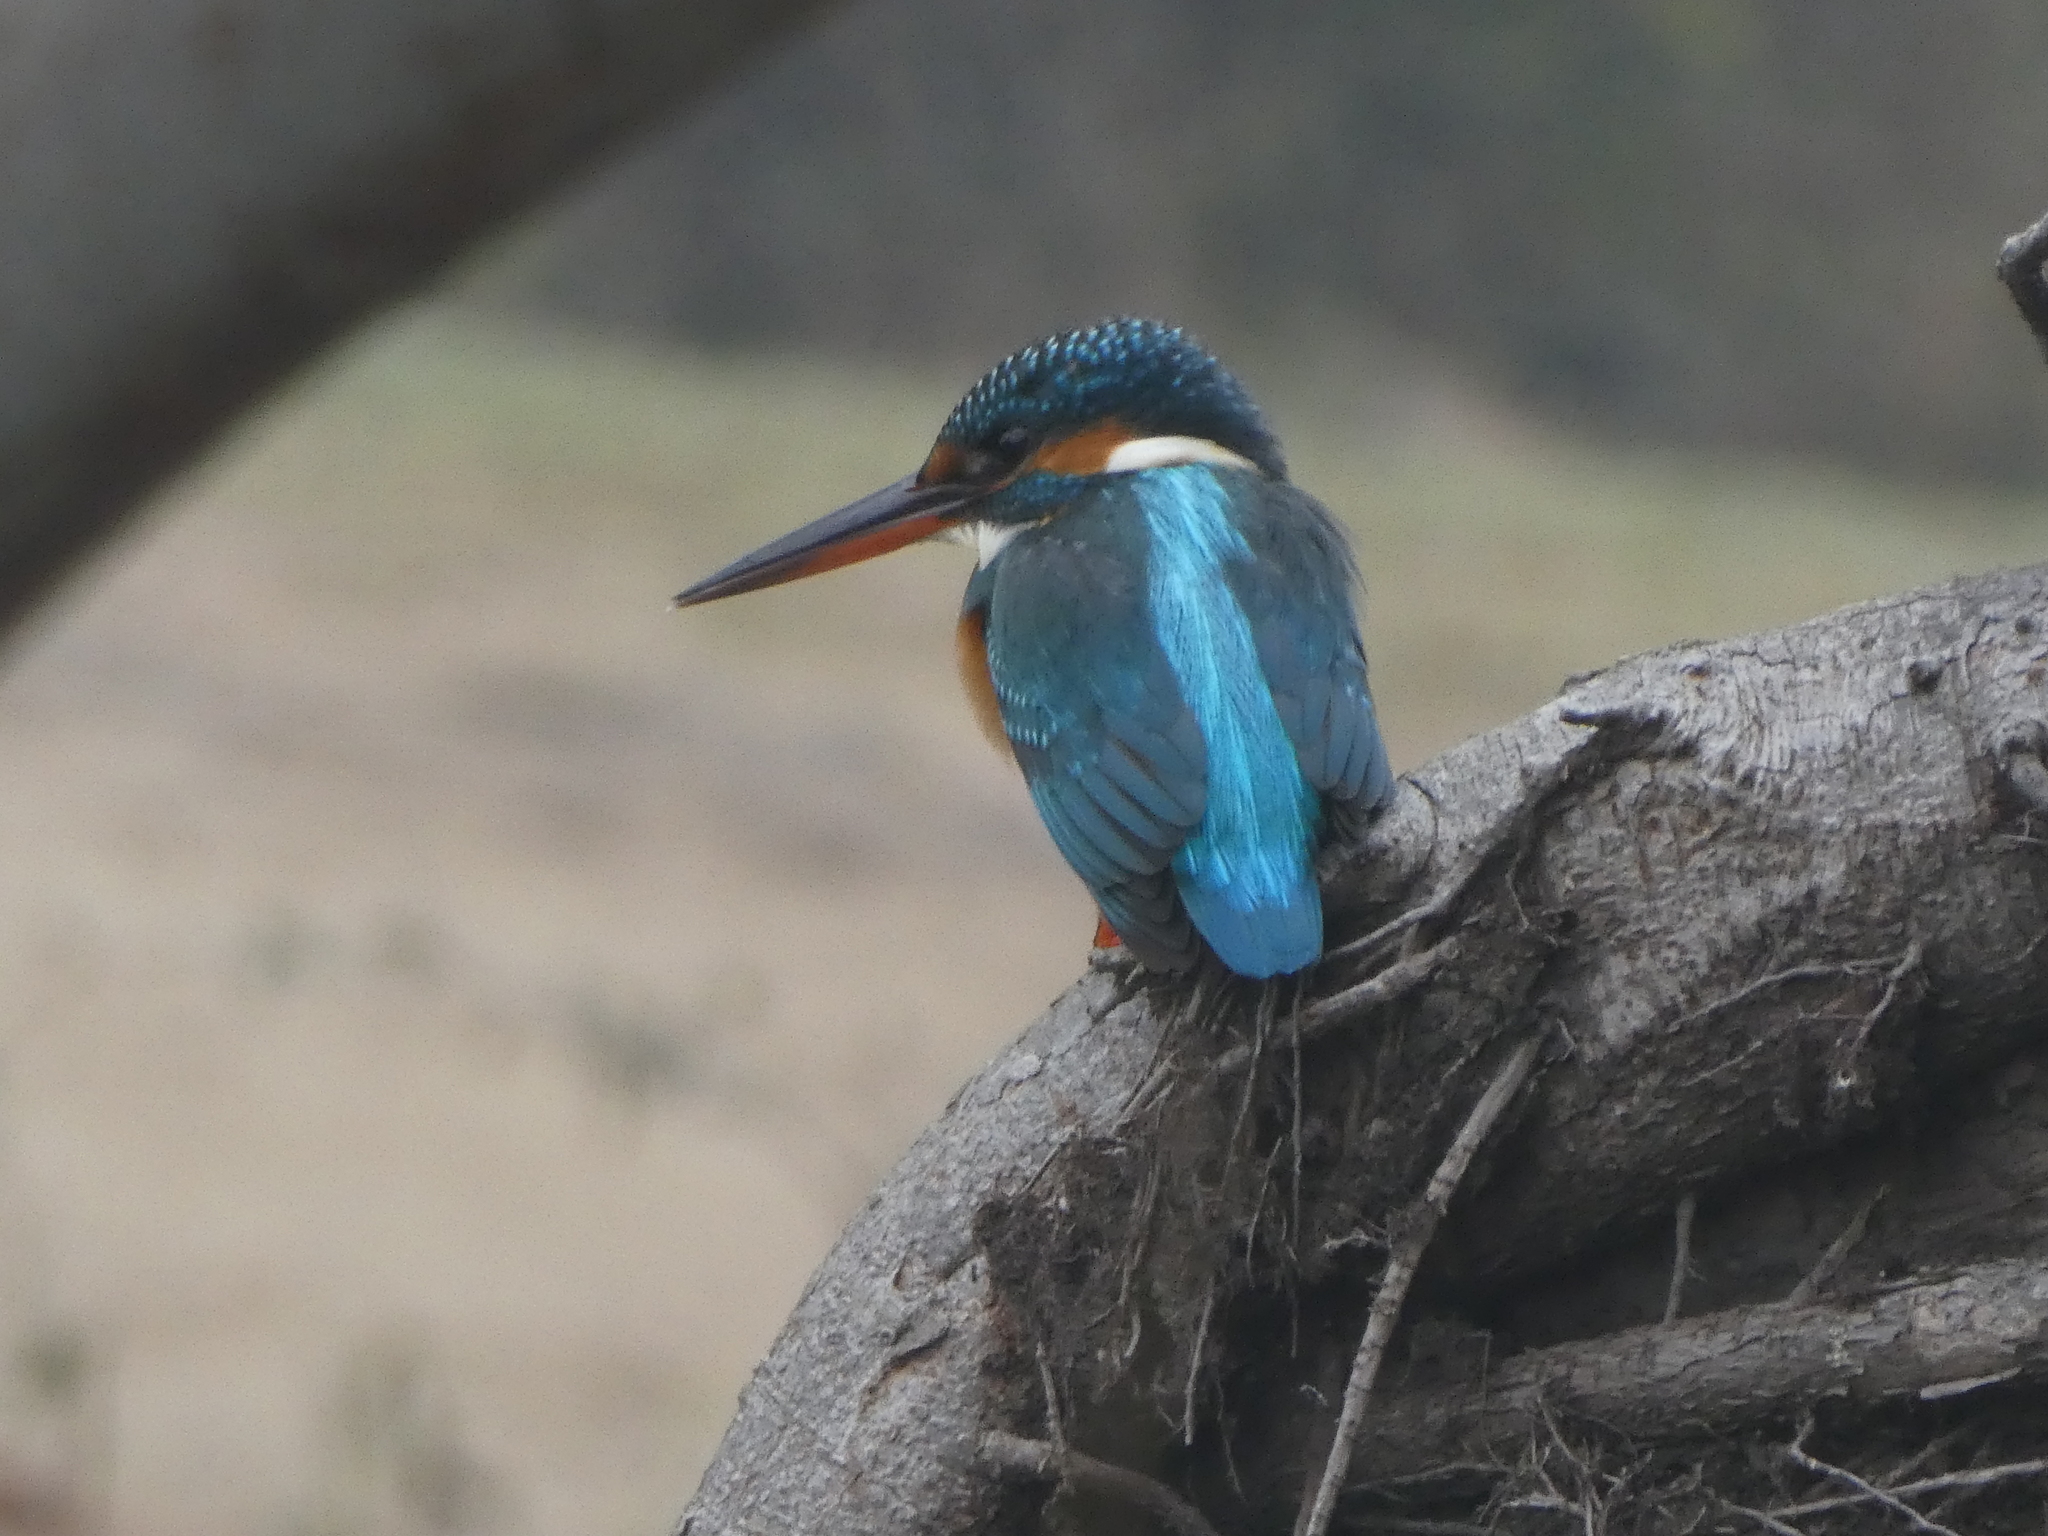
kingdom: Animalia
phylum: Chordata
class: Aves
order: Coraciiformes
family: Alcedinidae
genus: Alcedo
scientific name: Alcedo atthis
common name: Common kingfisher
